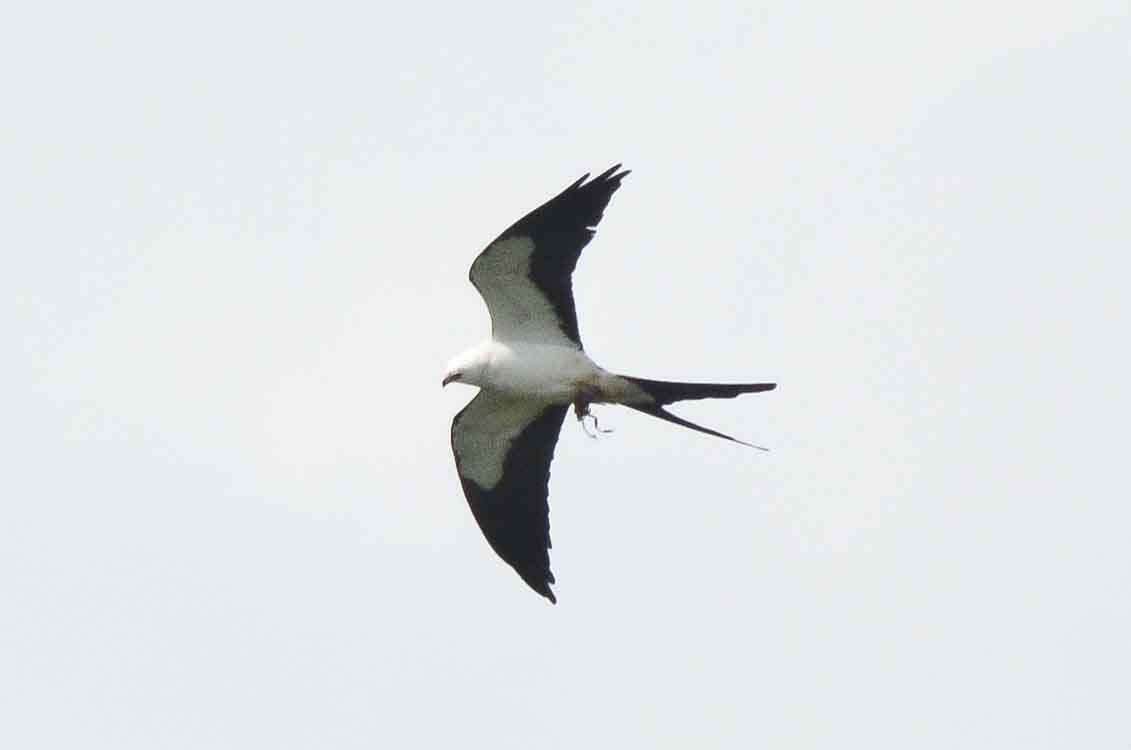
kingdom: Animalia
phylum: Chordata
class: Aves
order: Accipitriformes
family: Accipitridae
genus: Elanoides
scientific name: Elanoides forficatus
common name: Swallow-tailed kite
